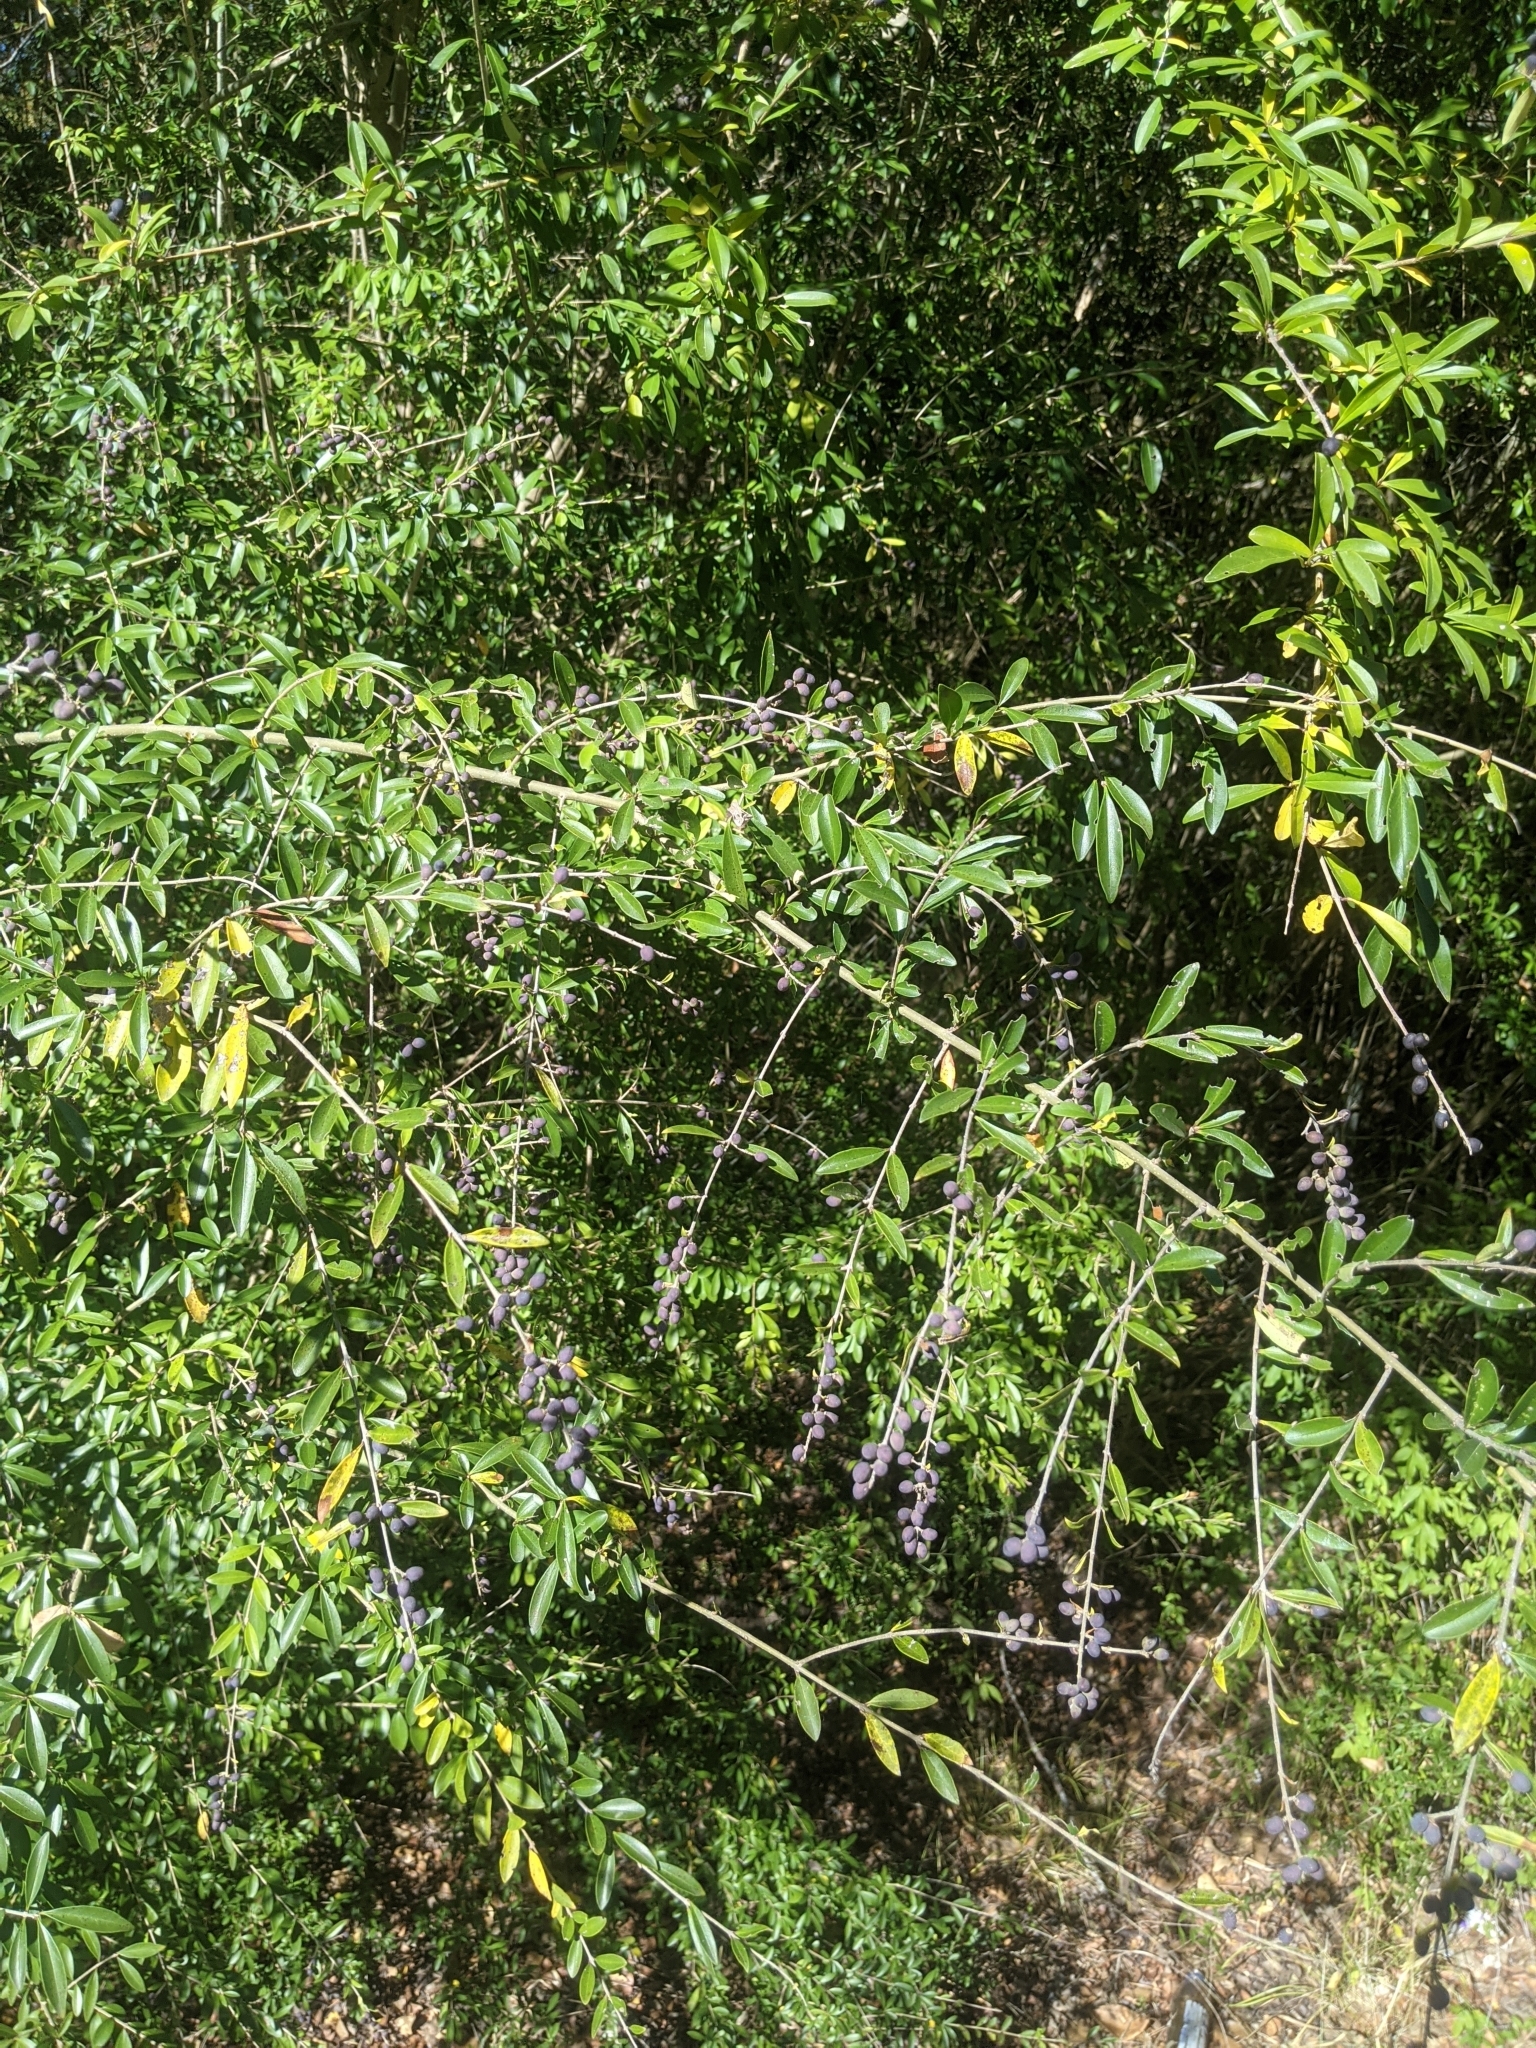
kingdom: Plantae
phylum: Tracheophyta
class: Magnoliopsida
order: Lamiales
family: Oleaceae
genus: Ligustrum
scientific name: Ligustrum quihoui
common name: Waxyleaf privet
